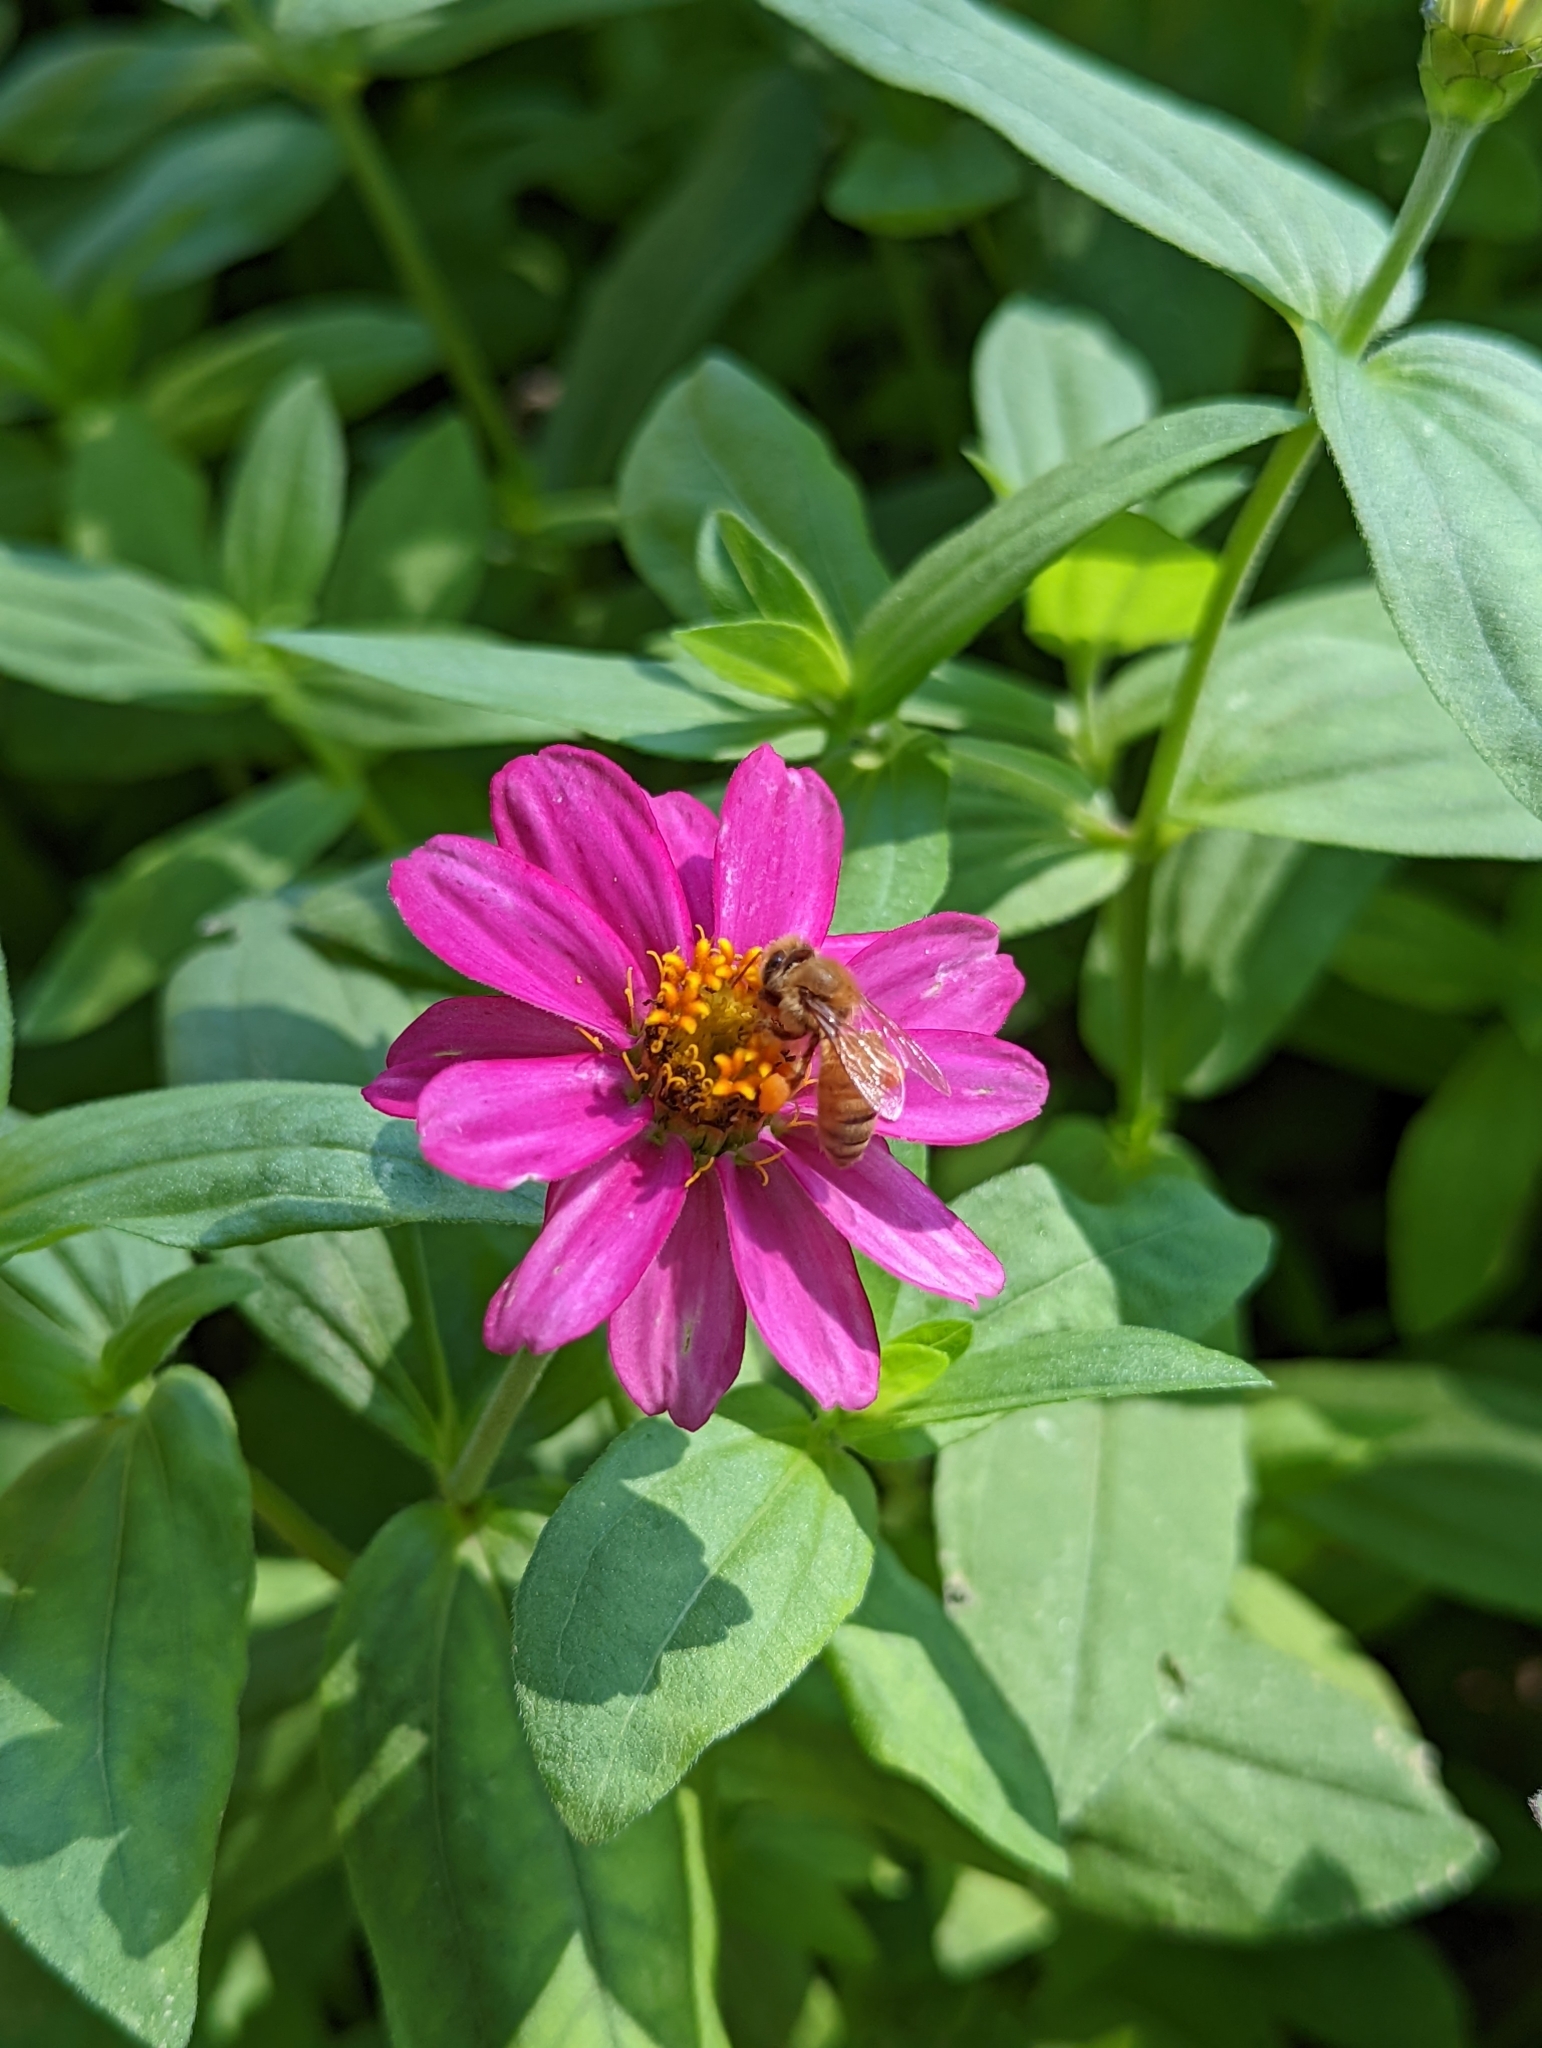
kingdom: Animalia
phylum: Arthropoda
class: Insecta
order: Hymenoptera
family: Apidae
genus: Apis
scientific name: Apis mellifera
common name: Honey bee
